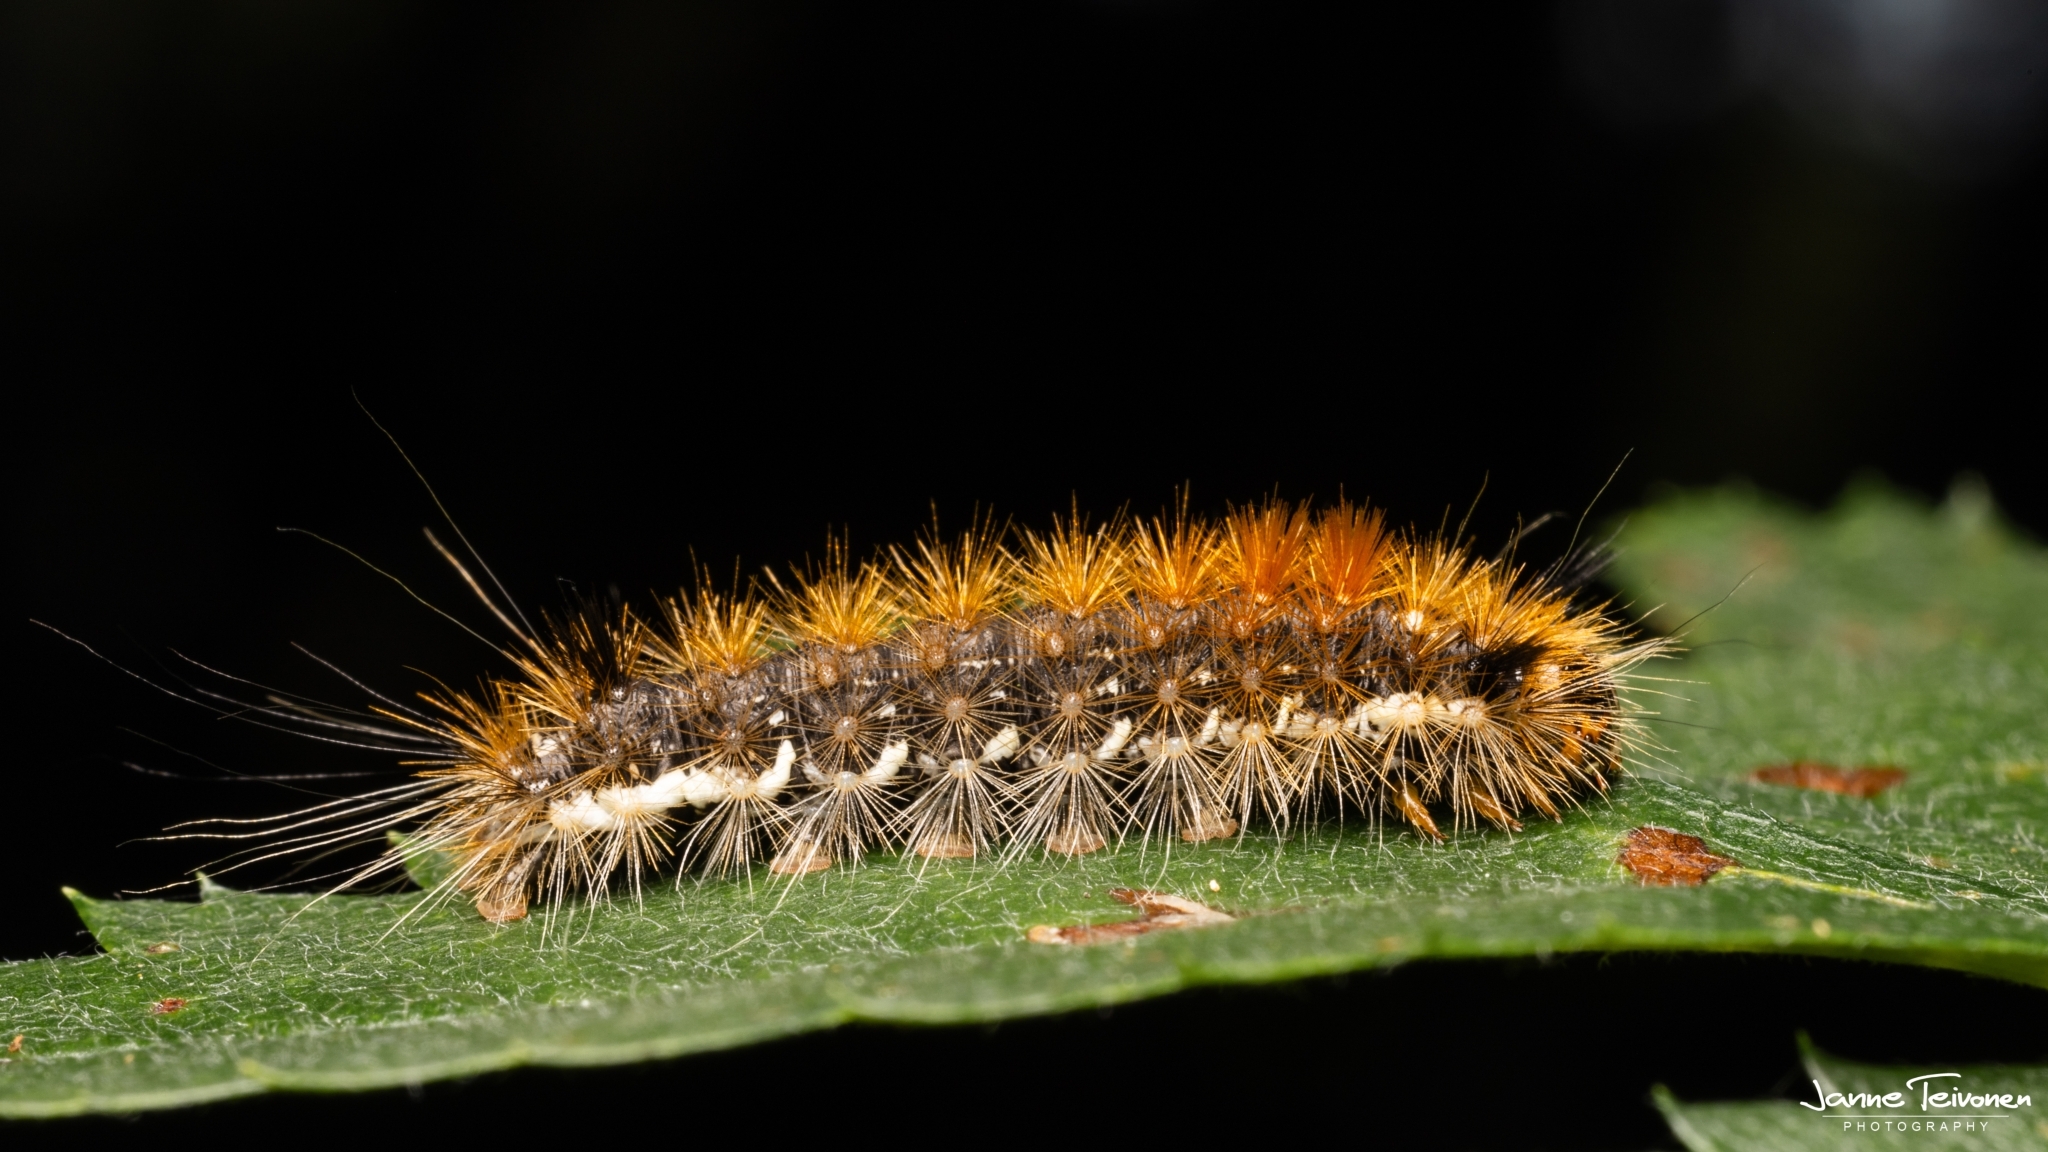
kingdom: Animalia
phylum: Arthropoda
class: Insecta
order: Lepidoptera
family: Noctuidae
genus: Colocasia
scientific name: Colocasia coryli
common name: Nut-tree tussock
